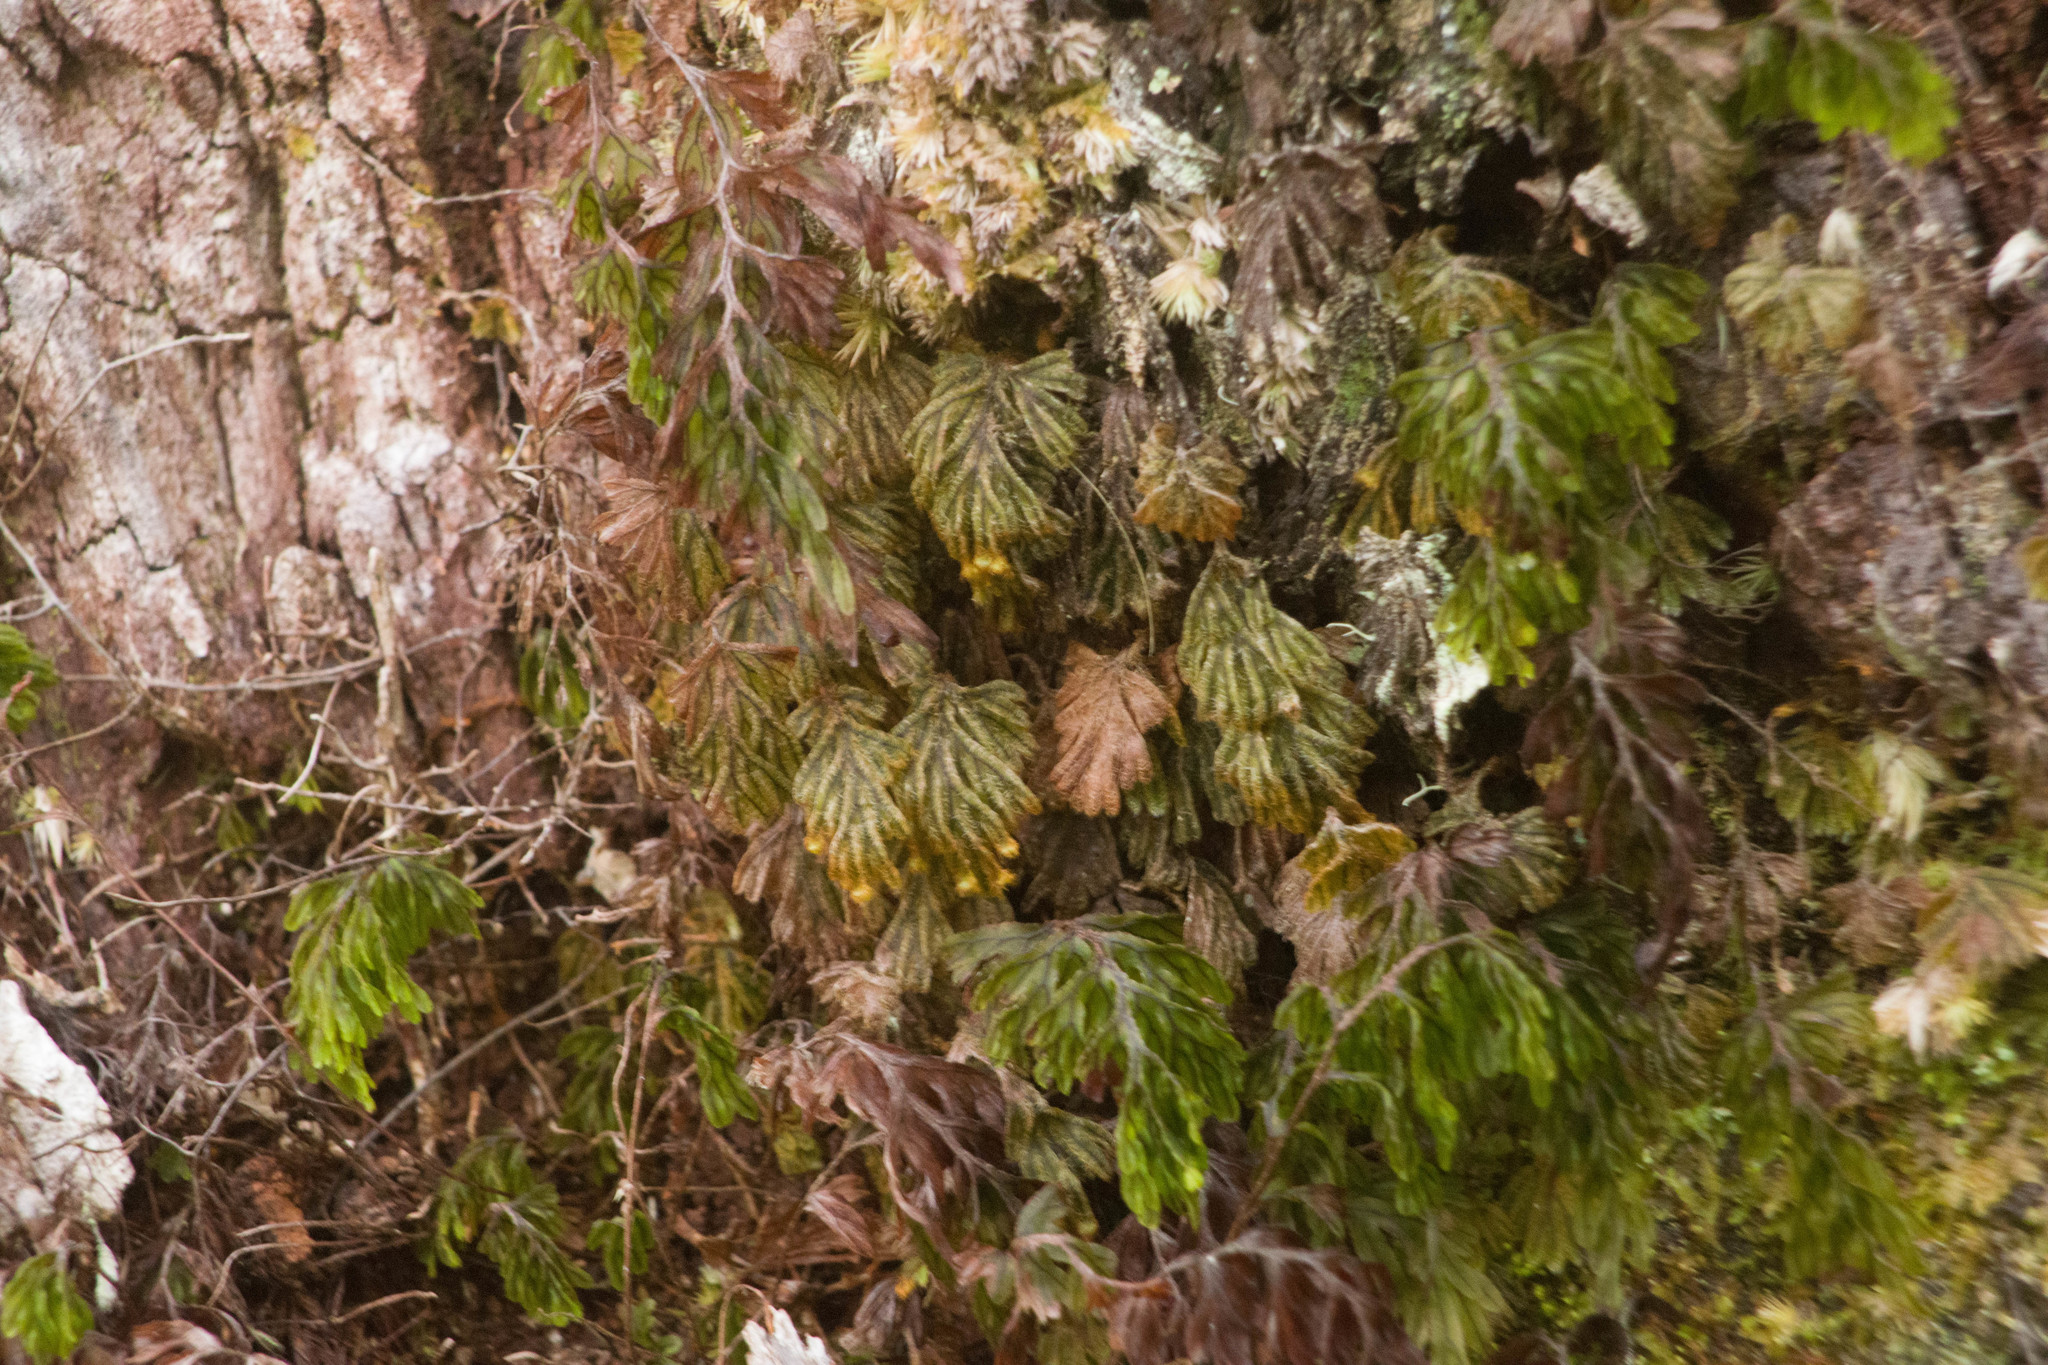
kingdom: Plantae
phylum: Tracheophyta
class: Polypodiopsida
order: Hymenophyllales
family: Hymenophyllaceae
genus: Hymenophyllum
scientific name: Hymenophyllum obtusum
